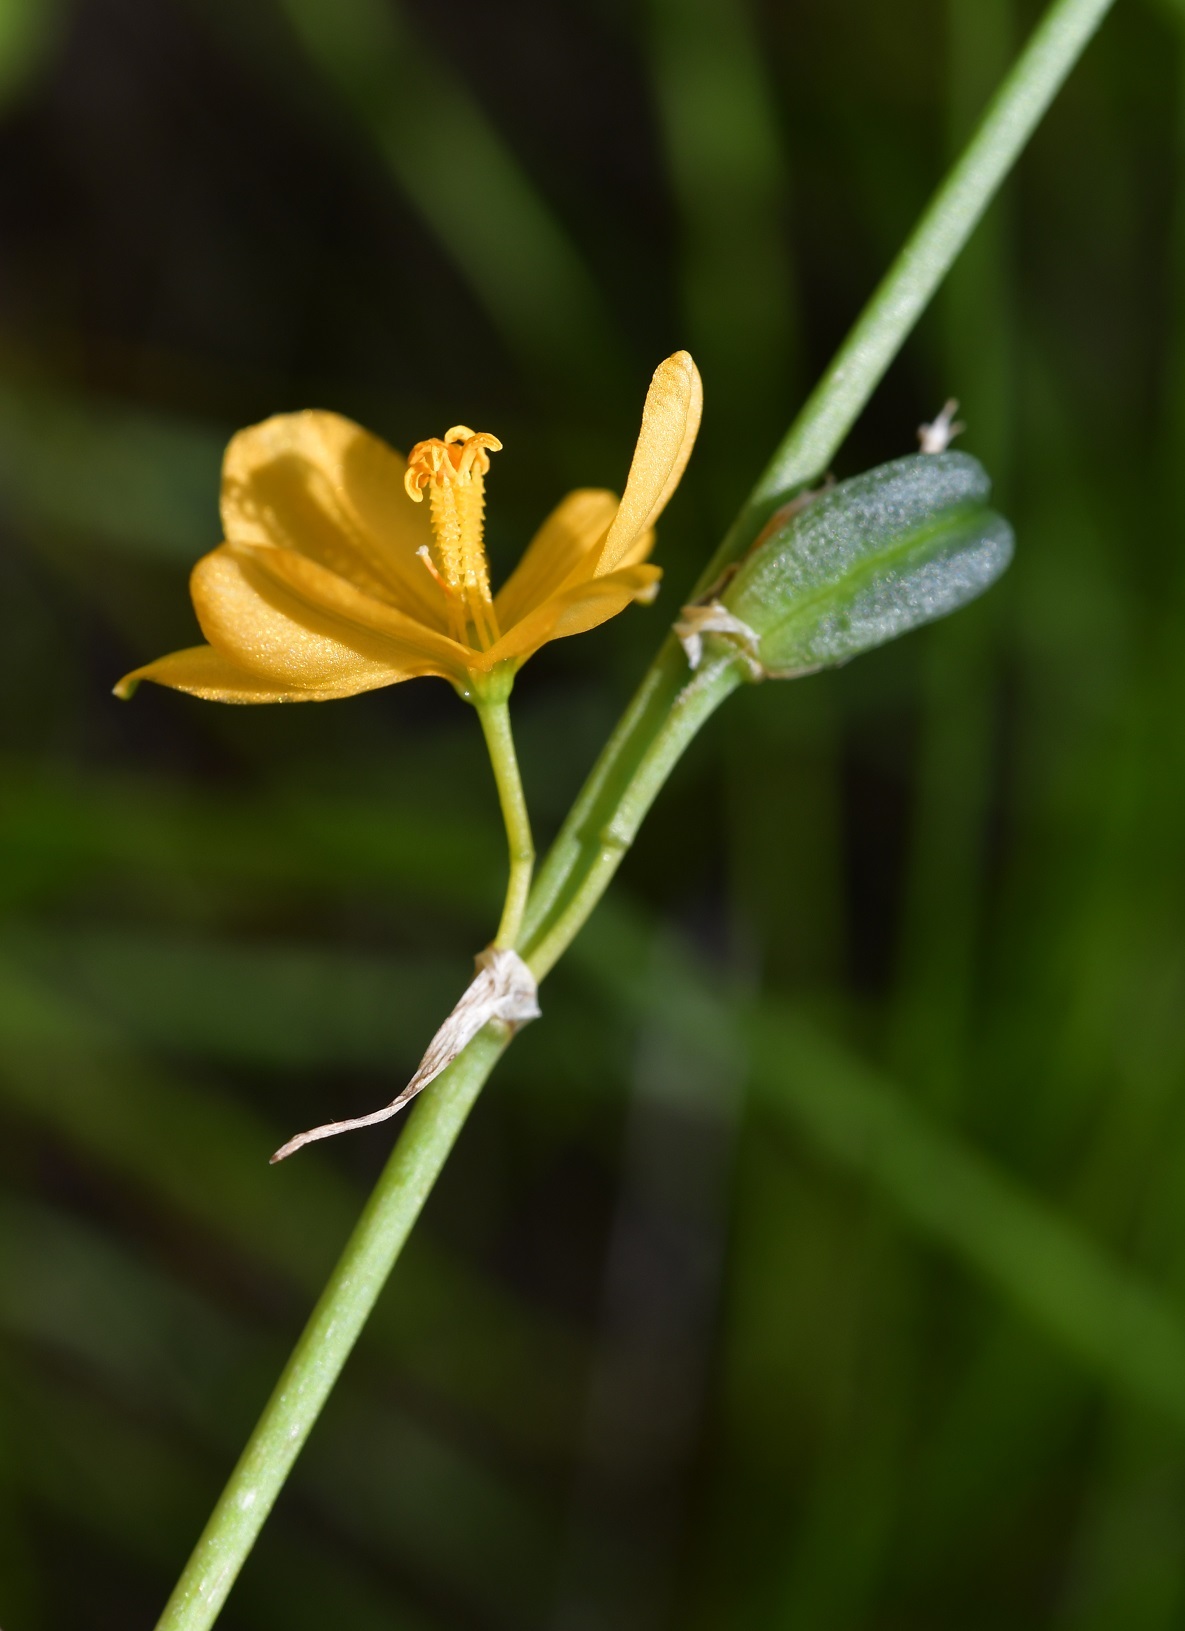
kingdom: Plantae
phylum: Tracheophyta
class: Liliopsida
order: Asparagales
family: Asparagaceae
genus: Echeandia
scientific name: Echeandia skinneri
